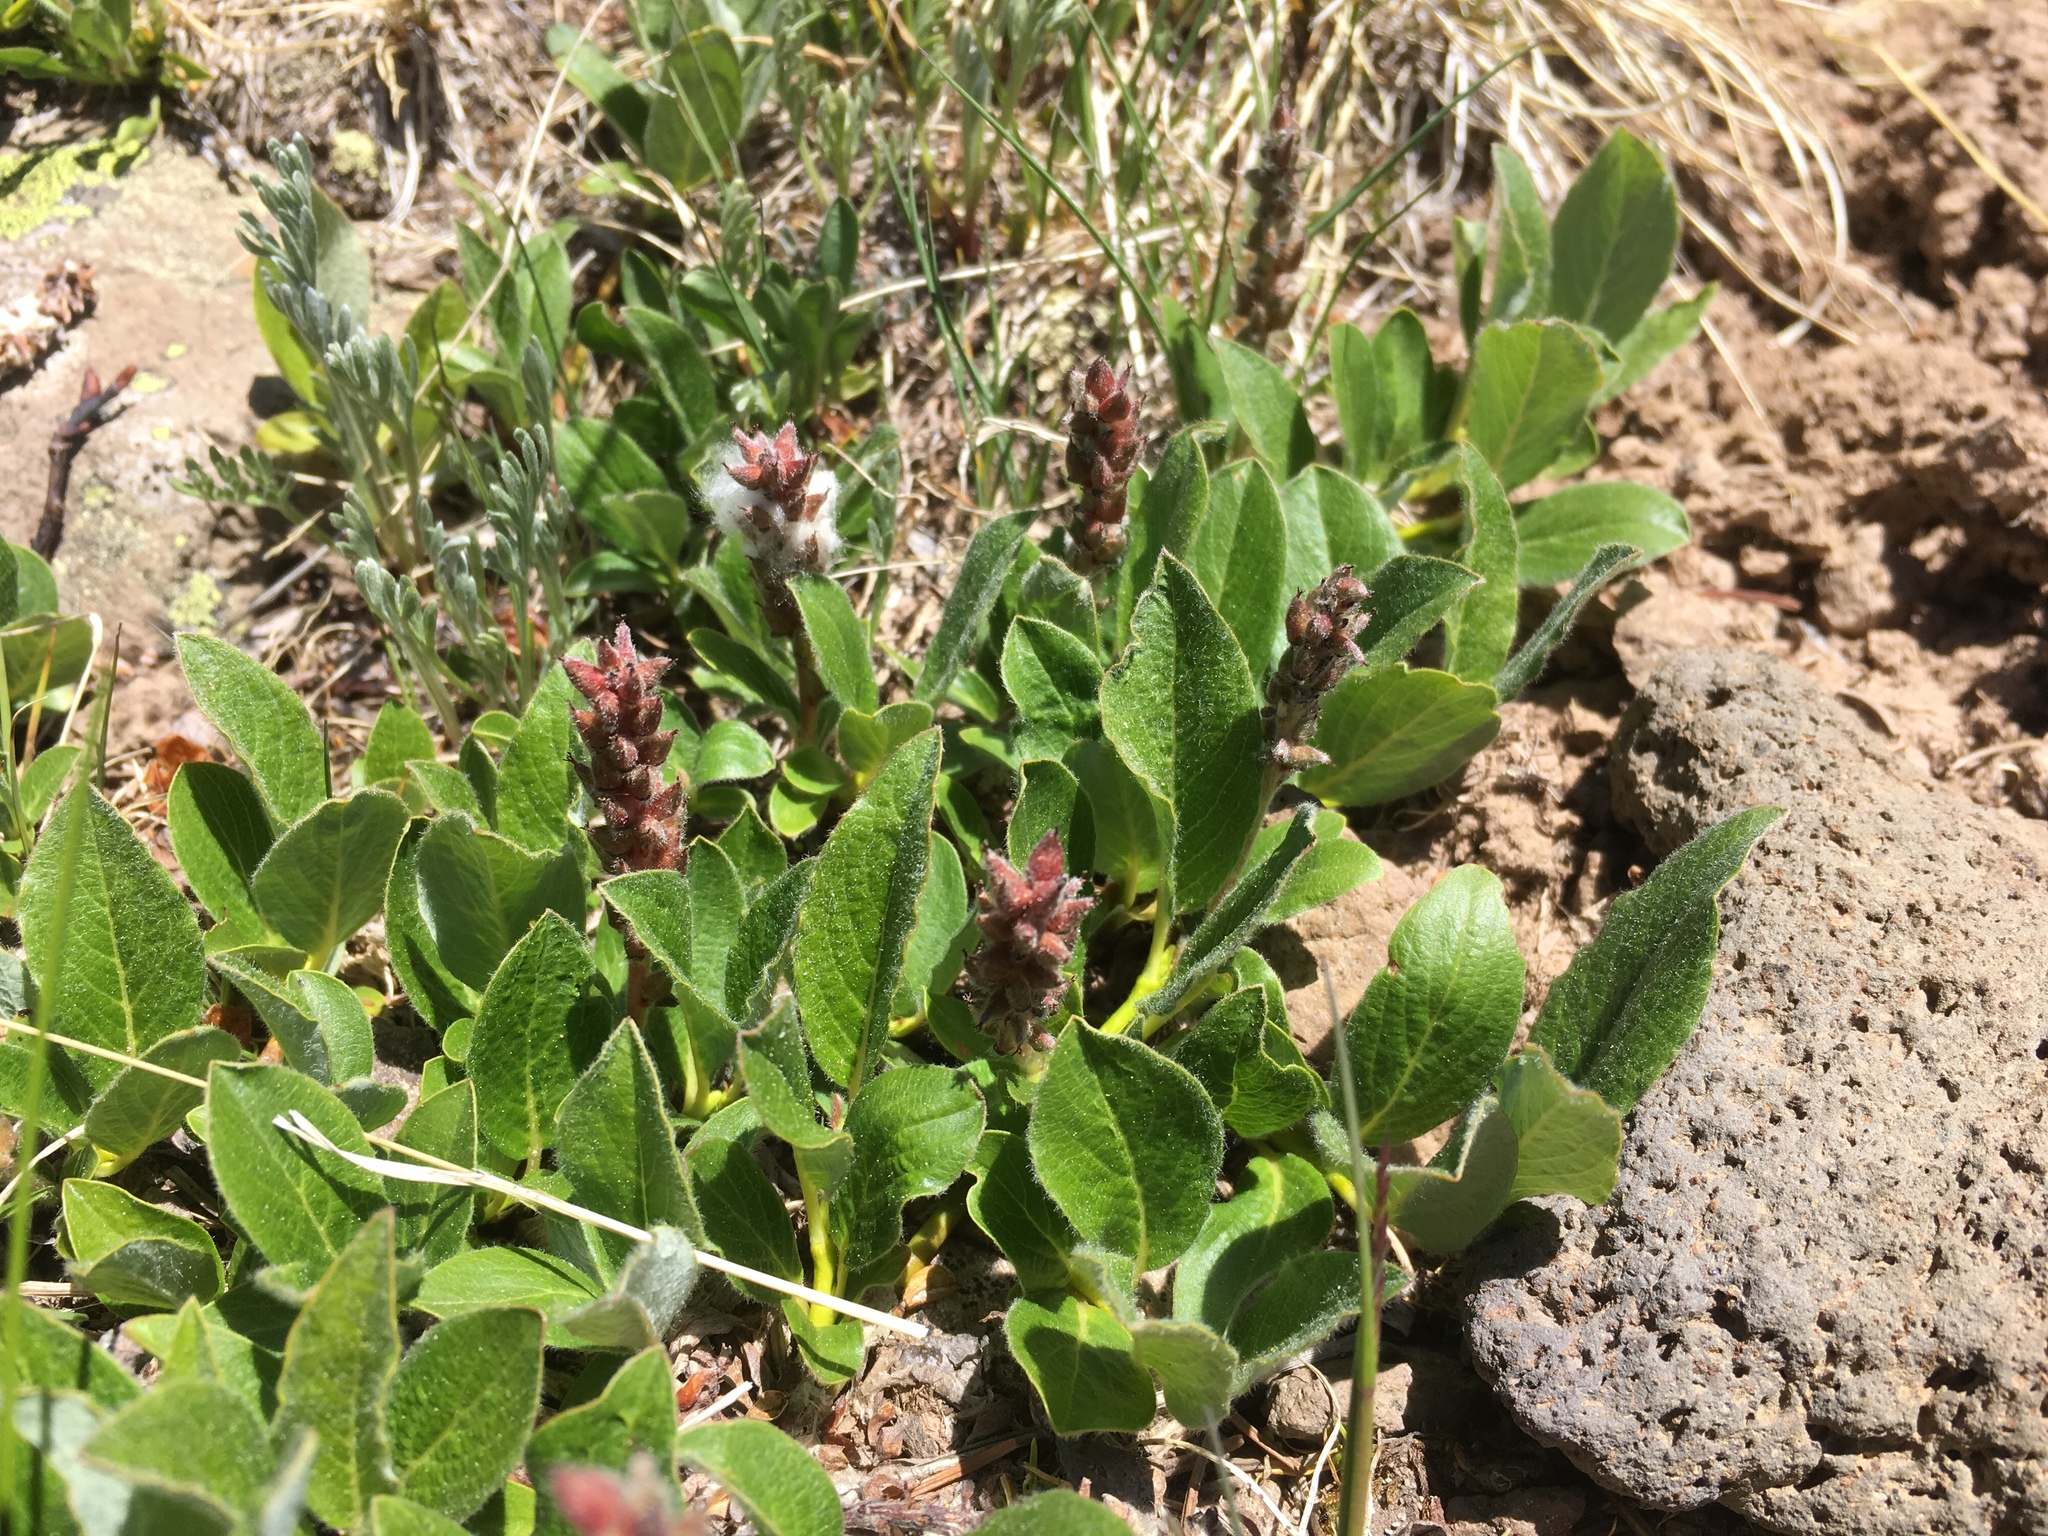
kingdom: Plantae
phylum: Tracheophyta
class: Magnoliopsida
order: Malpighiales
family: Salicaceae
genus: Salix
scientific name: Salix petrophila
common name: Rocky mountain willow
